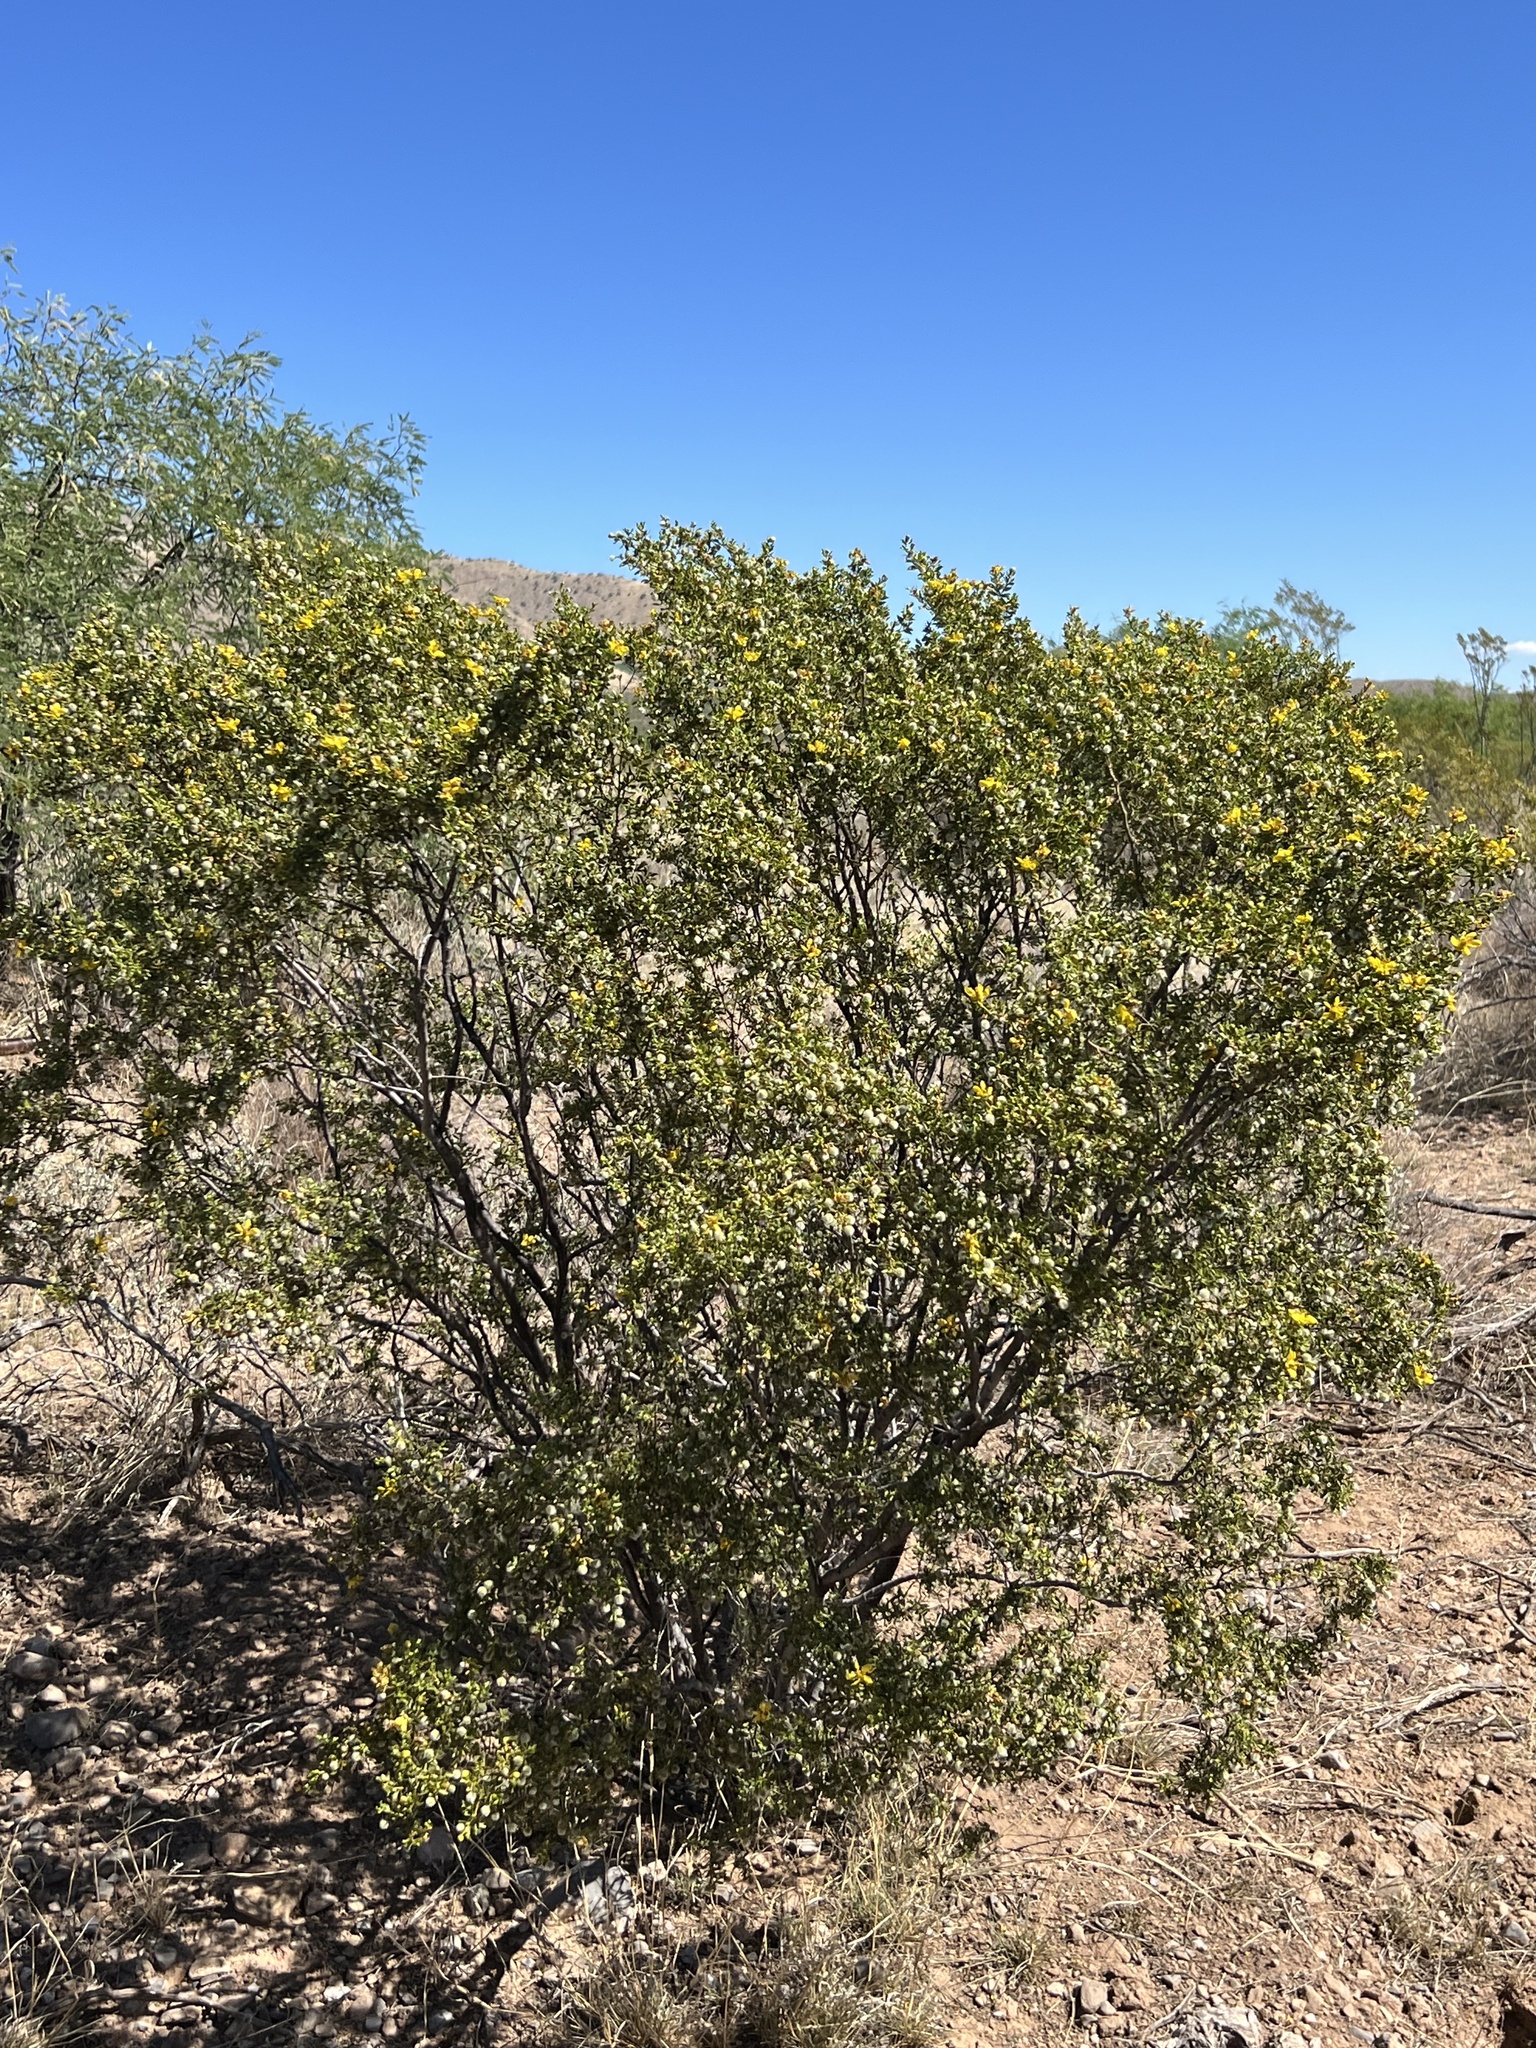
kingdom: Plantae
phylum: Tracheophyta
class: Magnoliopsida
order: Zygophyllales
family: Zygophyllaceae
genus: Larrea
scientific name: Larrea tridentata
